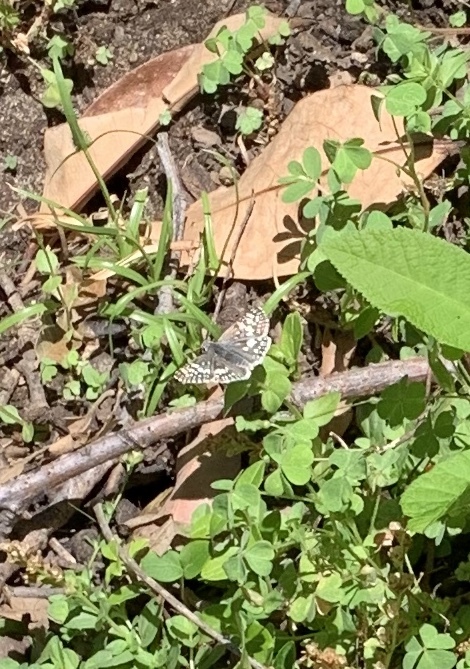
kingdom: Animalia
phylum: Arthropoda
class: Insecta
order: Lepidoptera
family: Hesperiidae
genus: Burnsius
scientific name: Burnsius communis
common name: Common checkered-skipper
